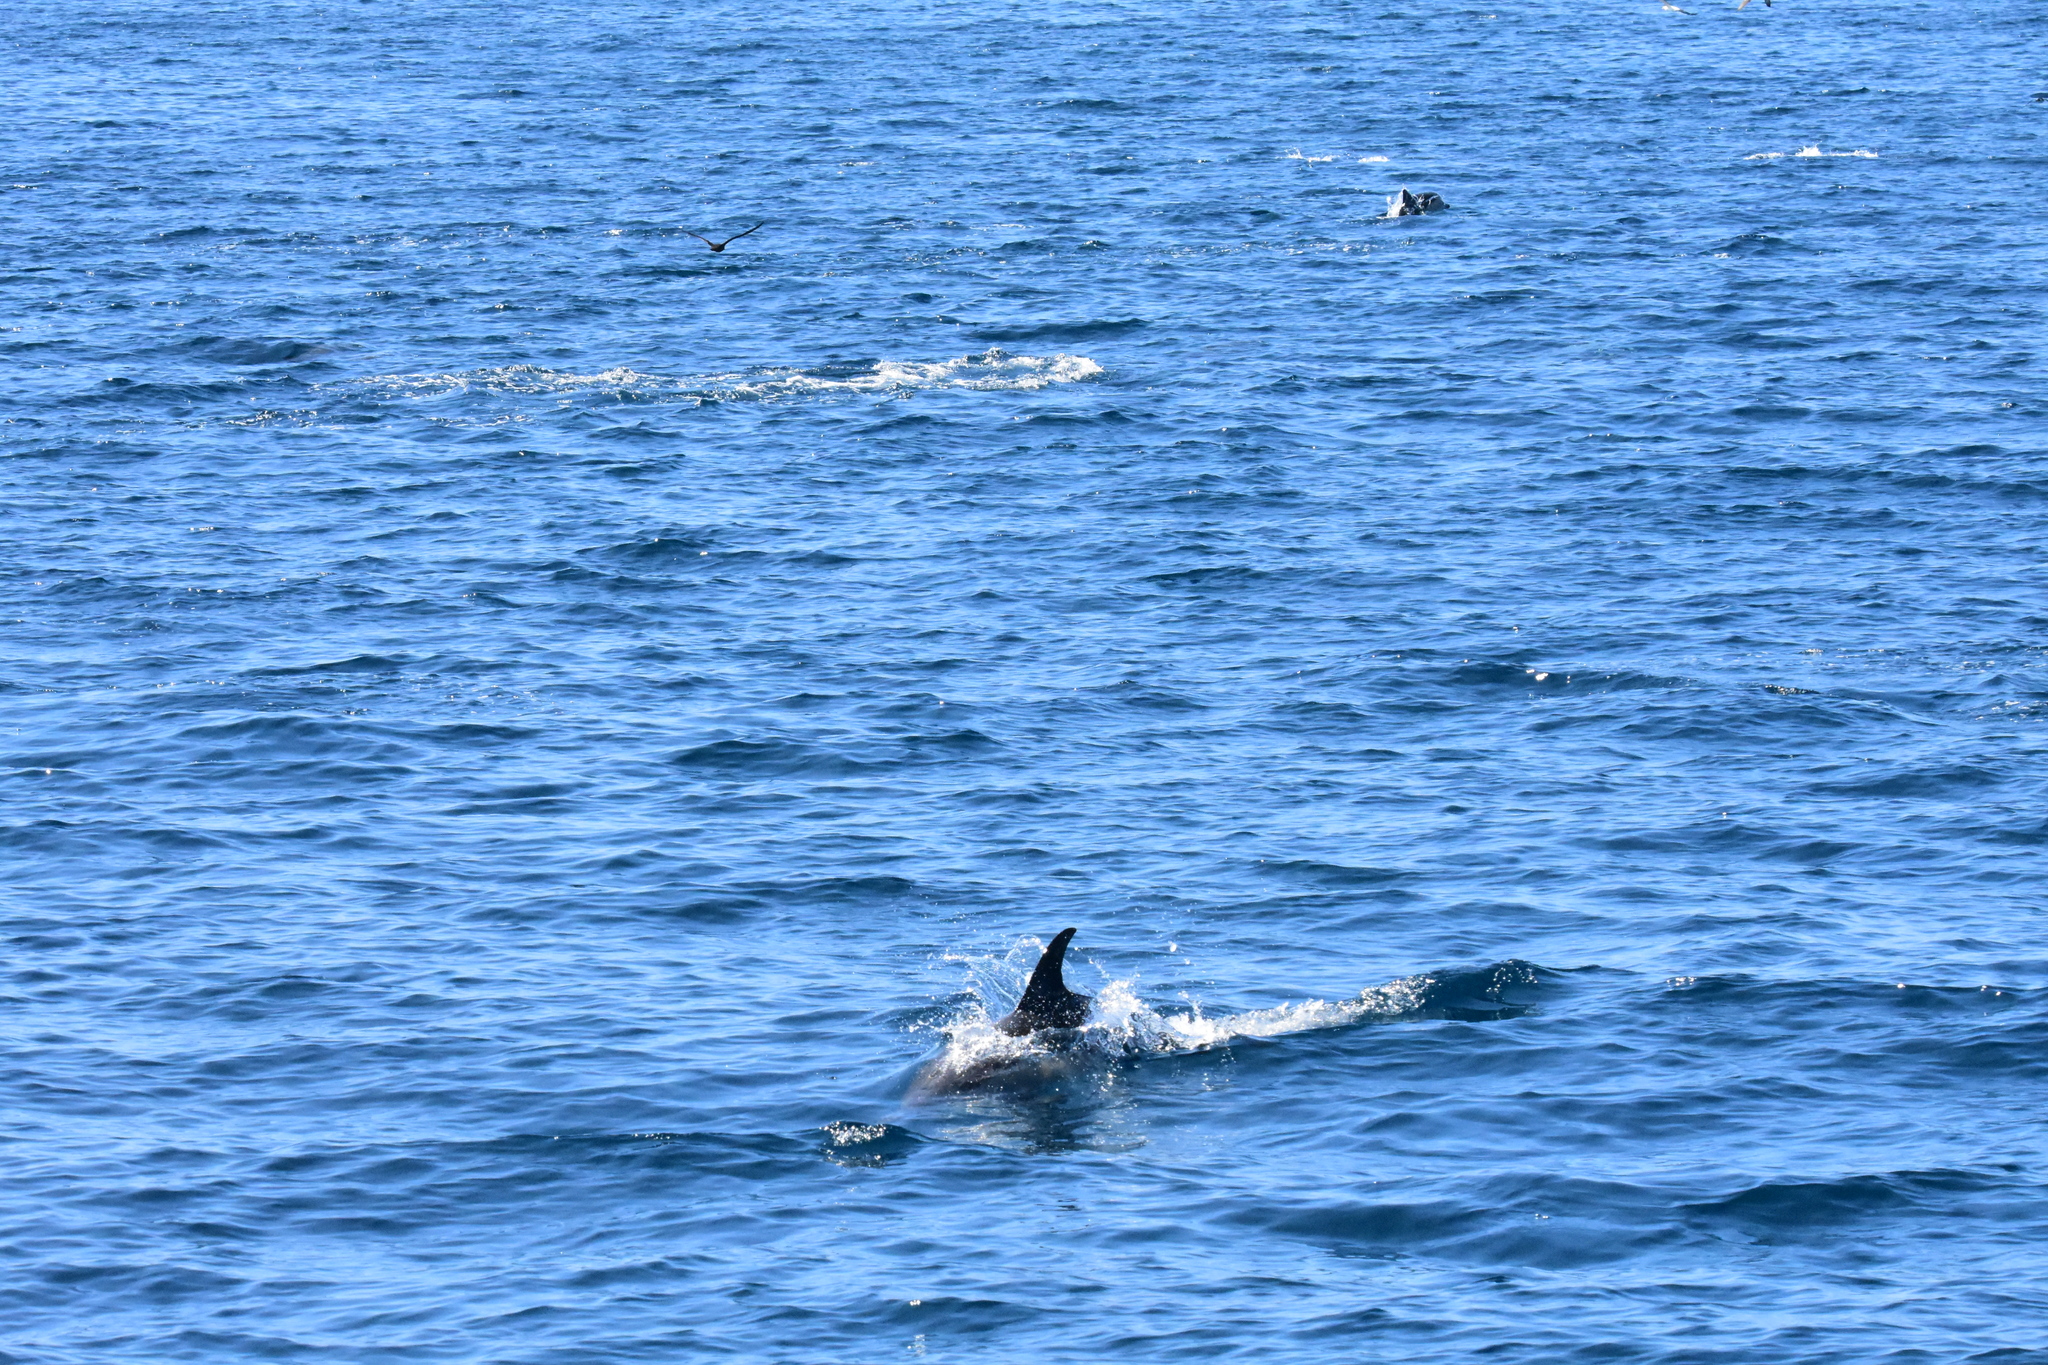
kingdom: Animalia
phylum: Chordata
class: Mammalia
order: Cetacea
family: Delphinidae
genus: Delphinus
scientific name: Delphinus delphis
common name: Common dolphin
